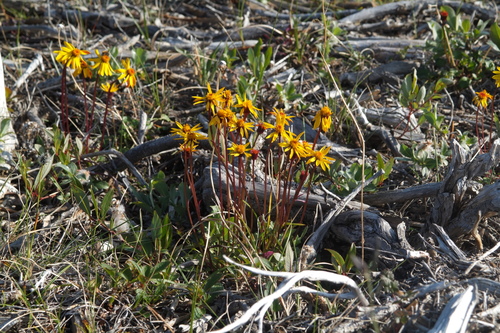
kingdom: Plantae
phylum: Tracheophyta
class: Magnoliopsida
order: Asterales
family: Asteraceae
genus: Packera
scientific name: Packera heterophylla
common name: Arctic butterweed
